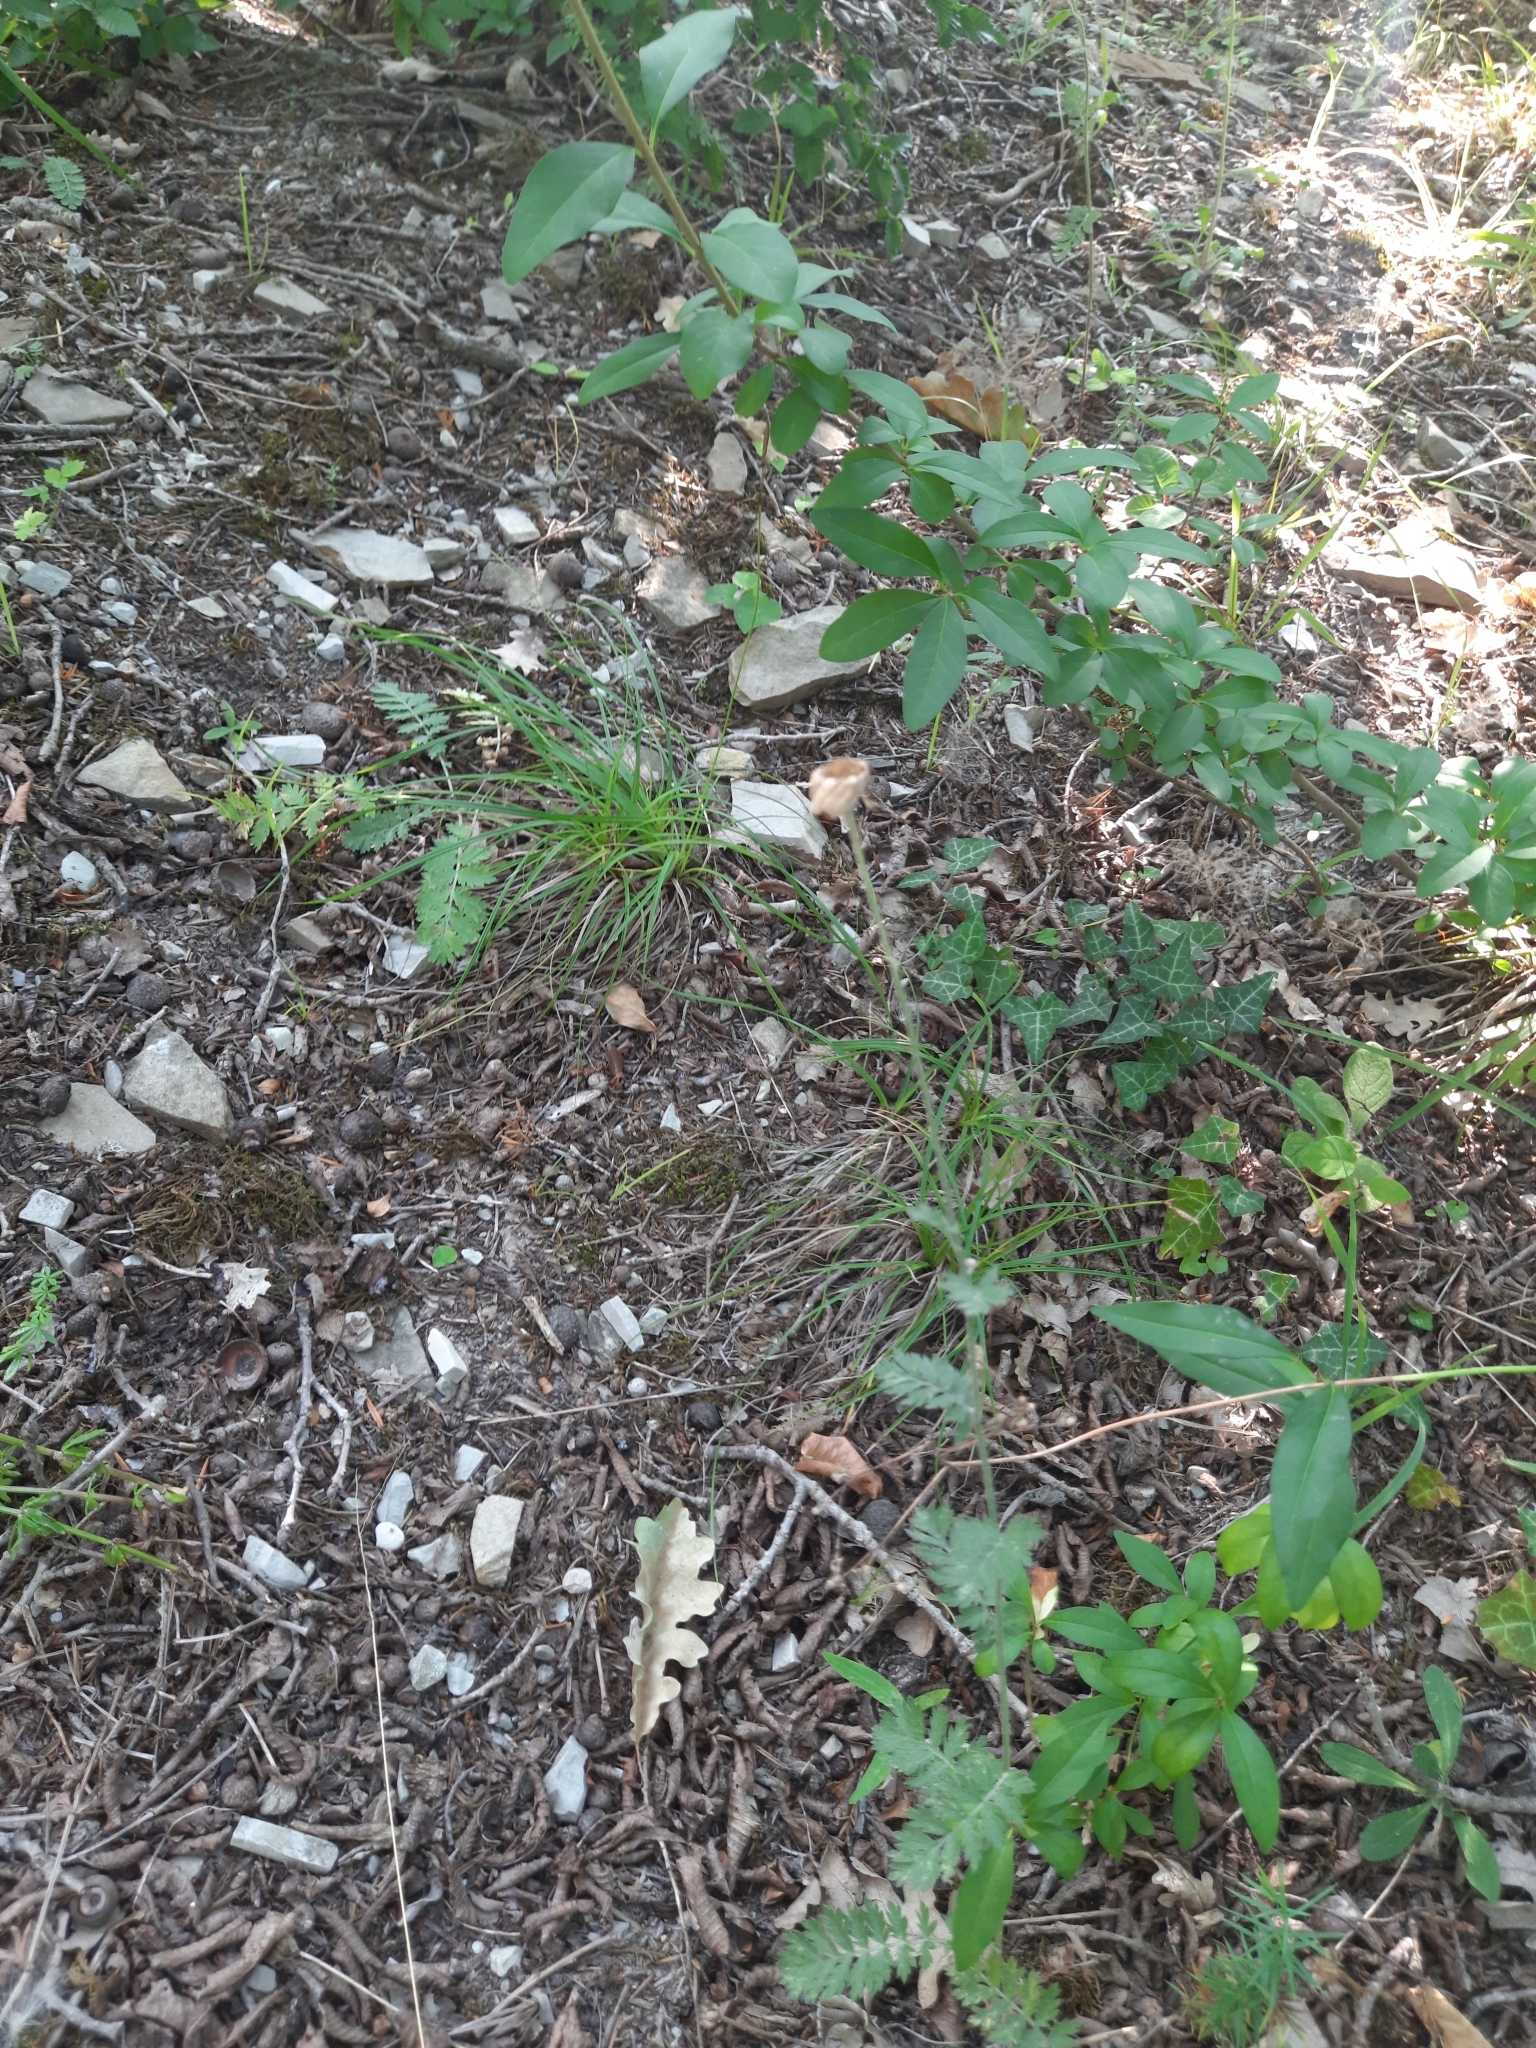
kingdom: Plantae
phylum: Tracheophyta
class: Magnoliopsida
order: Asterales
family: Asteraceae
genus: Tanacetum
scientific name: Tanacetum poteriifolium
